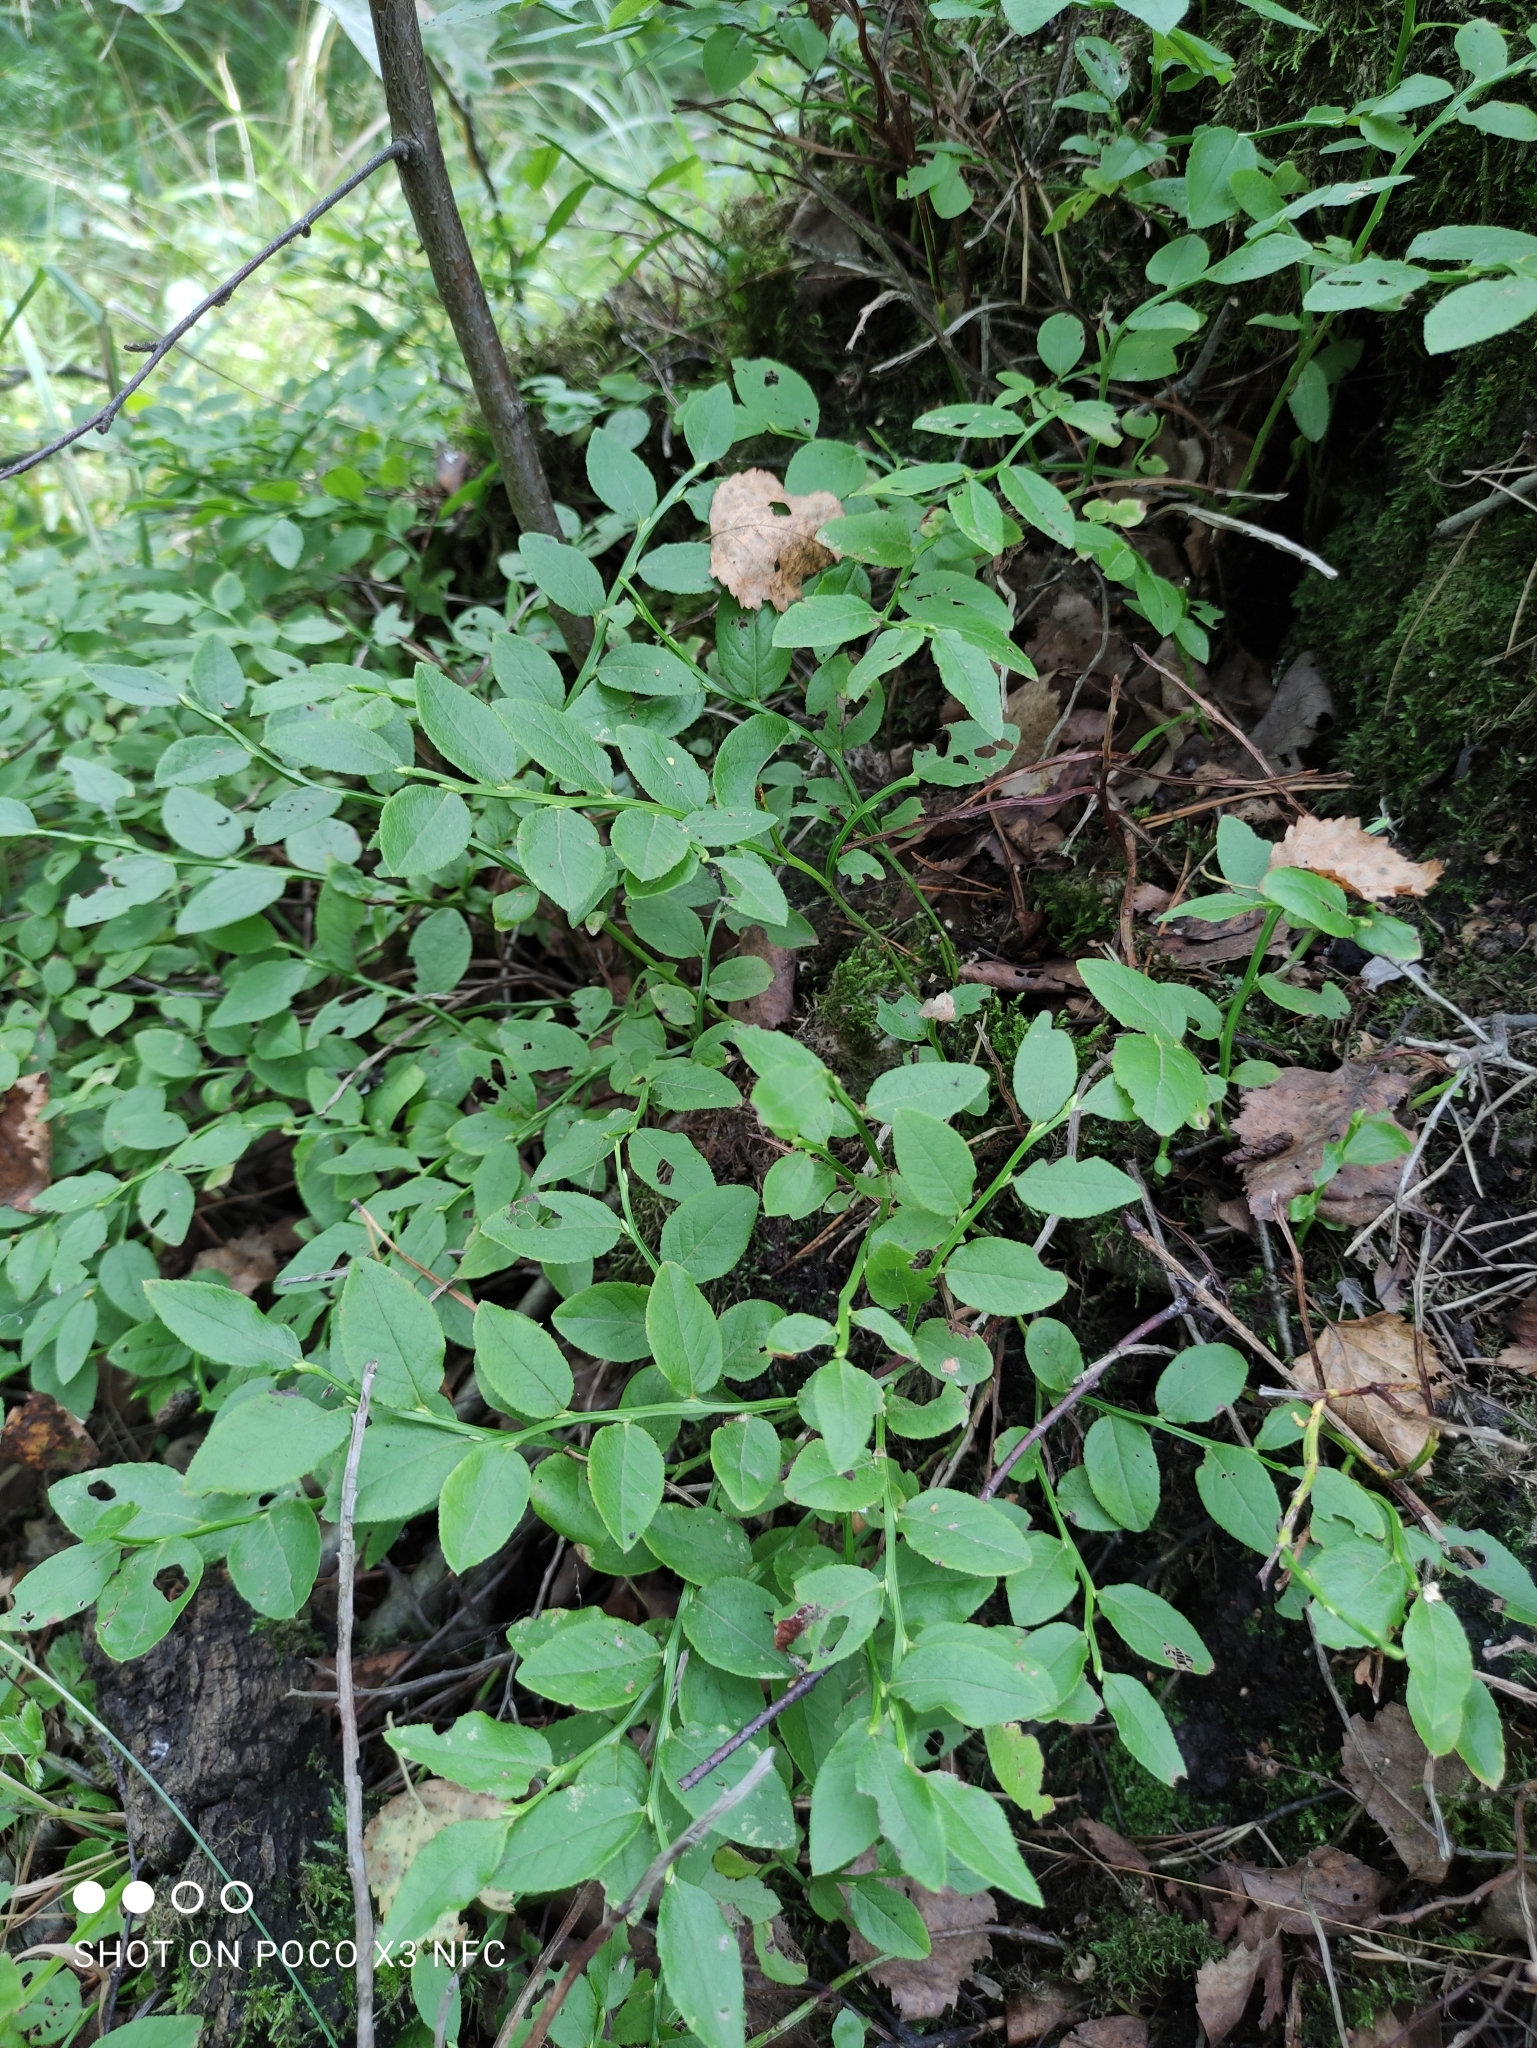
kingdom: Plantae
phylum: Tracheophyta
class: Magnoliopsida
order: Ericales
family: Ericaceae
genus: Vaccinium
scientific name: Vaccinium myrtillus
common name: Bilberry
